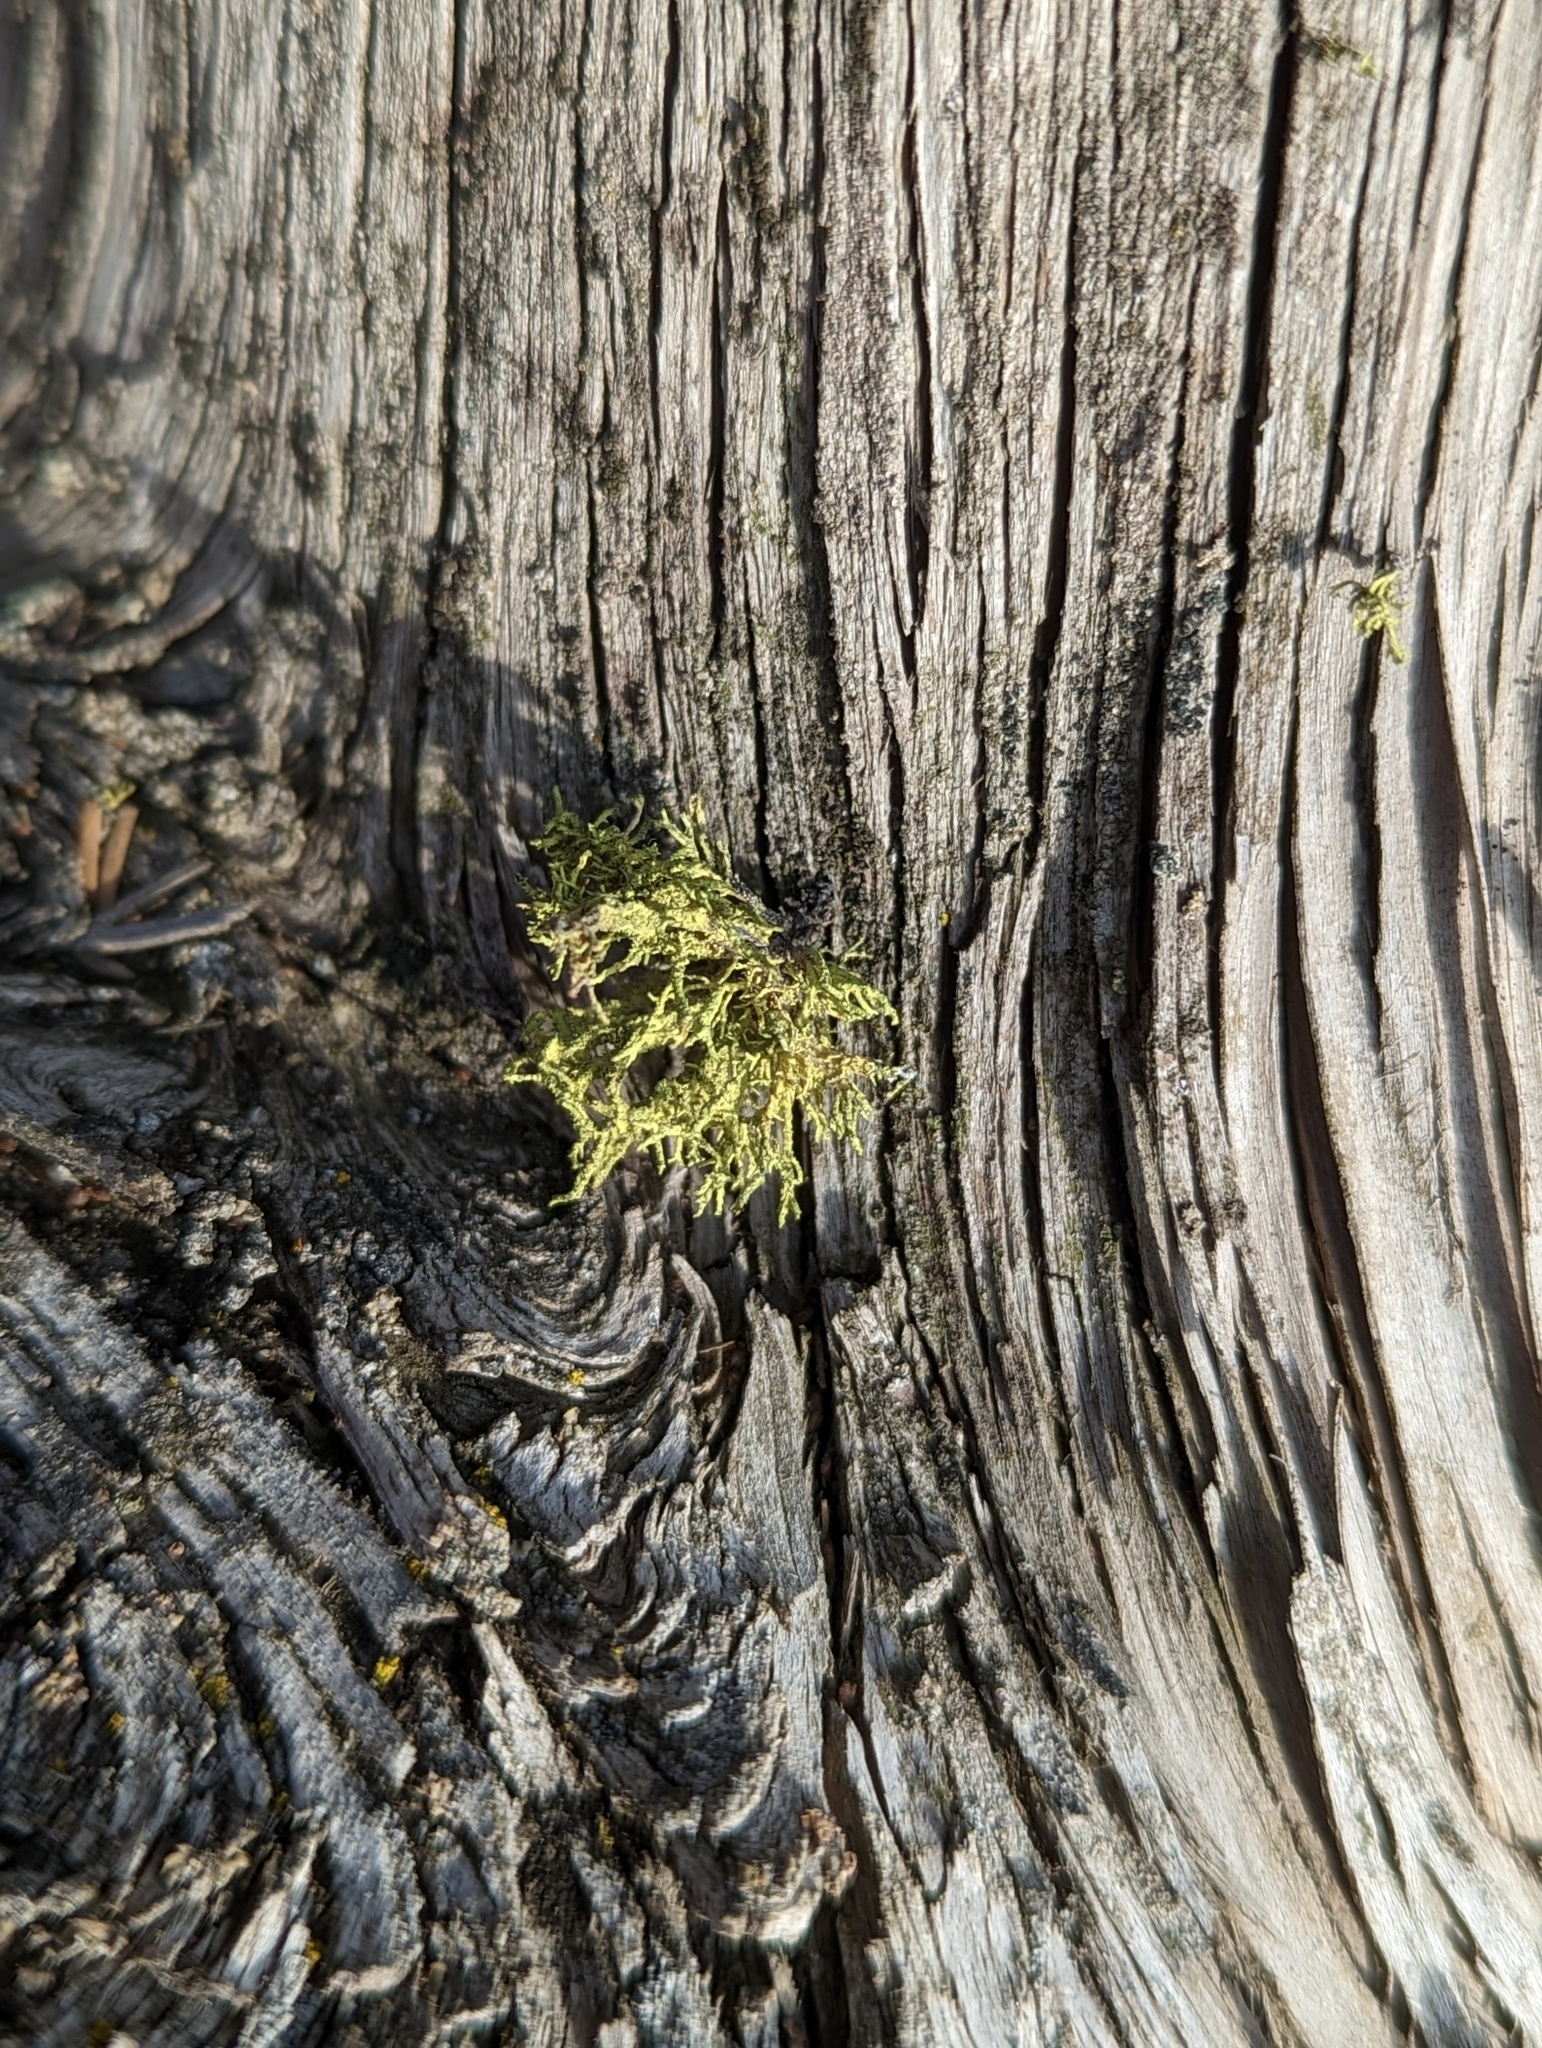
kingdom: Fungi
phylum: Ascomycota
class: Lecanoromycetes
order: Lecanorales
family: Parmeliaceae
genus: Letharia
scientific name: Letharia vulpina
